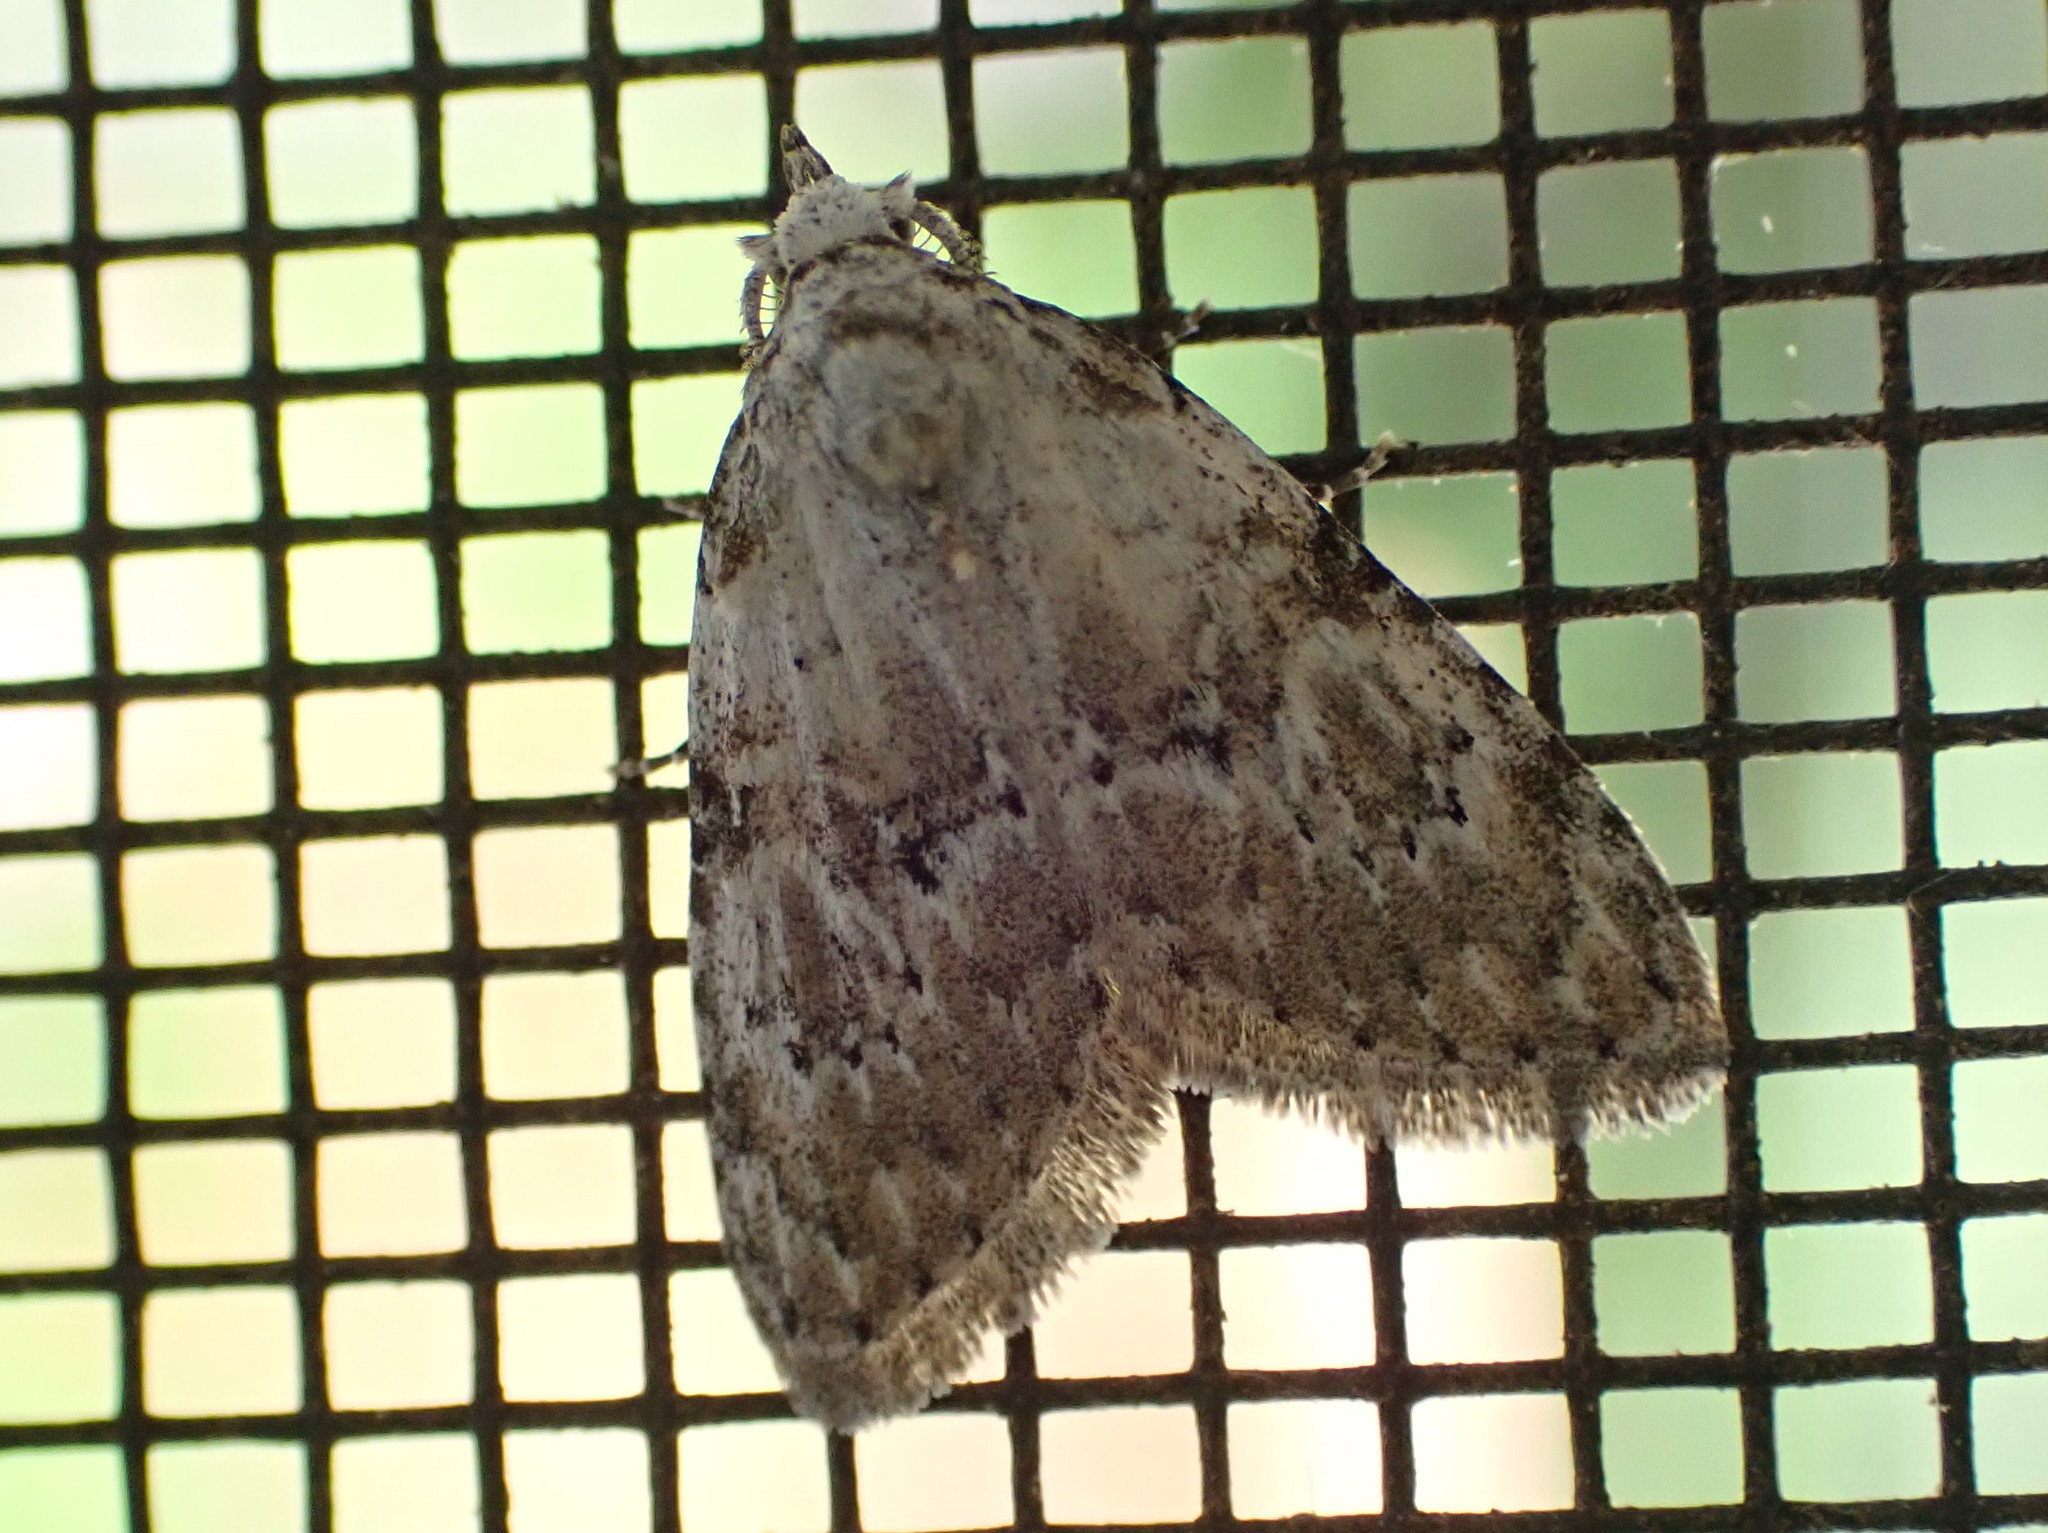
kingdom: Animalia
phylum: Arthropoda
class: Insecta
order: Lepidoptera
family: Nolidae
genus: Meganola
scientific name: Meganola minuscula
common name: Confused meganola moth
